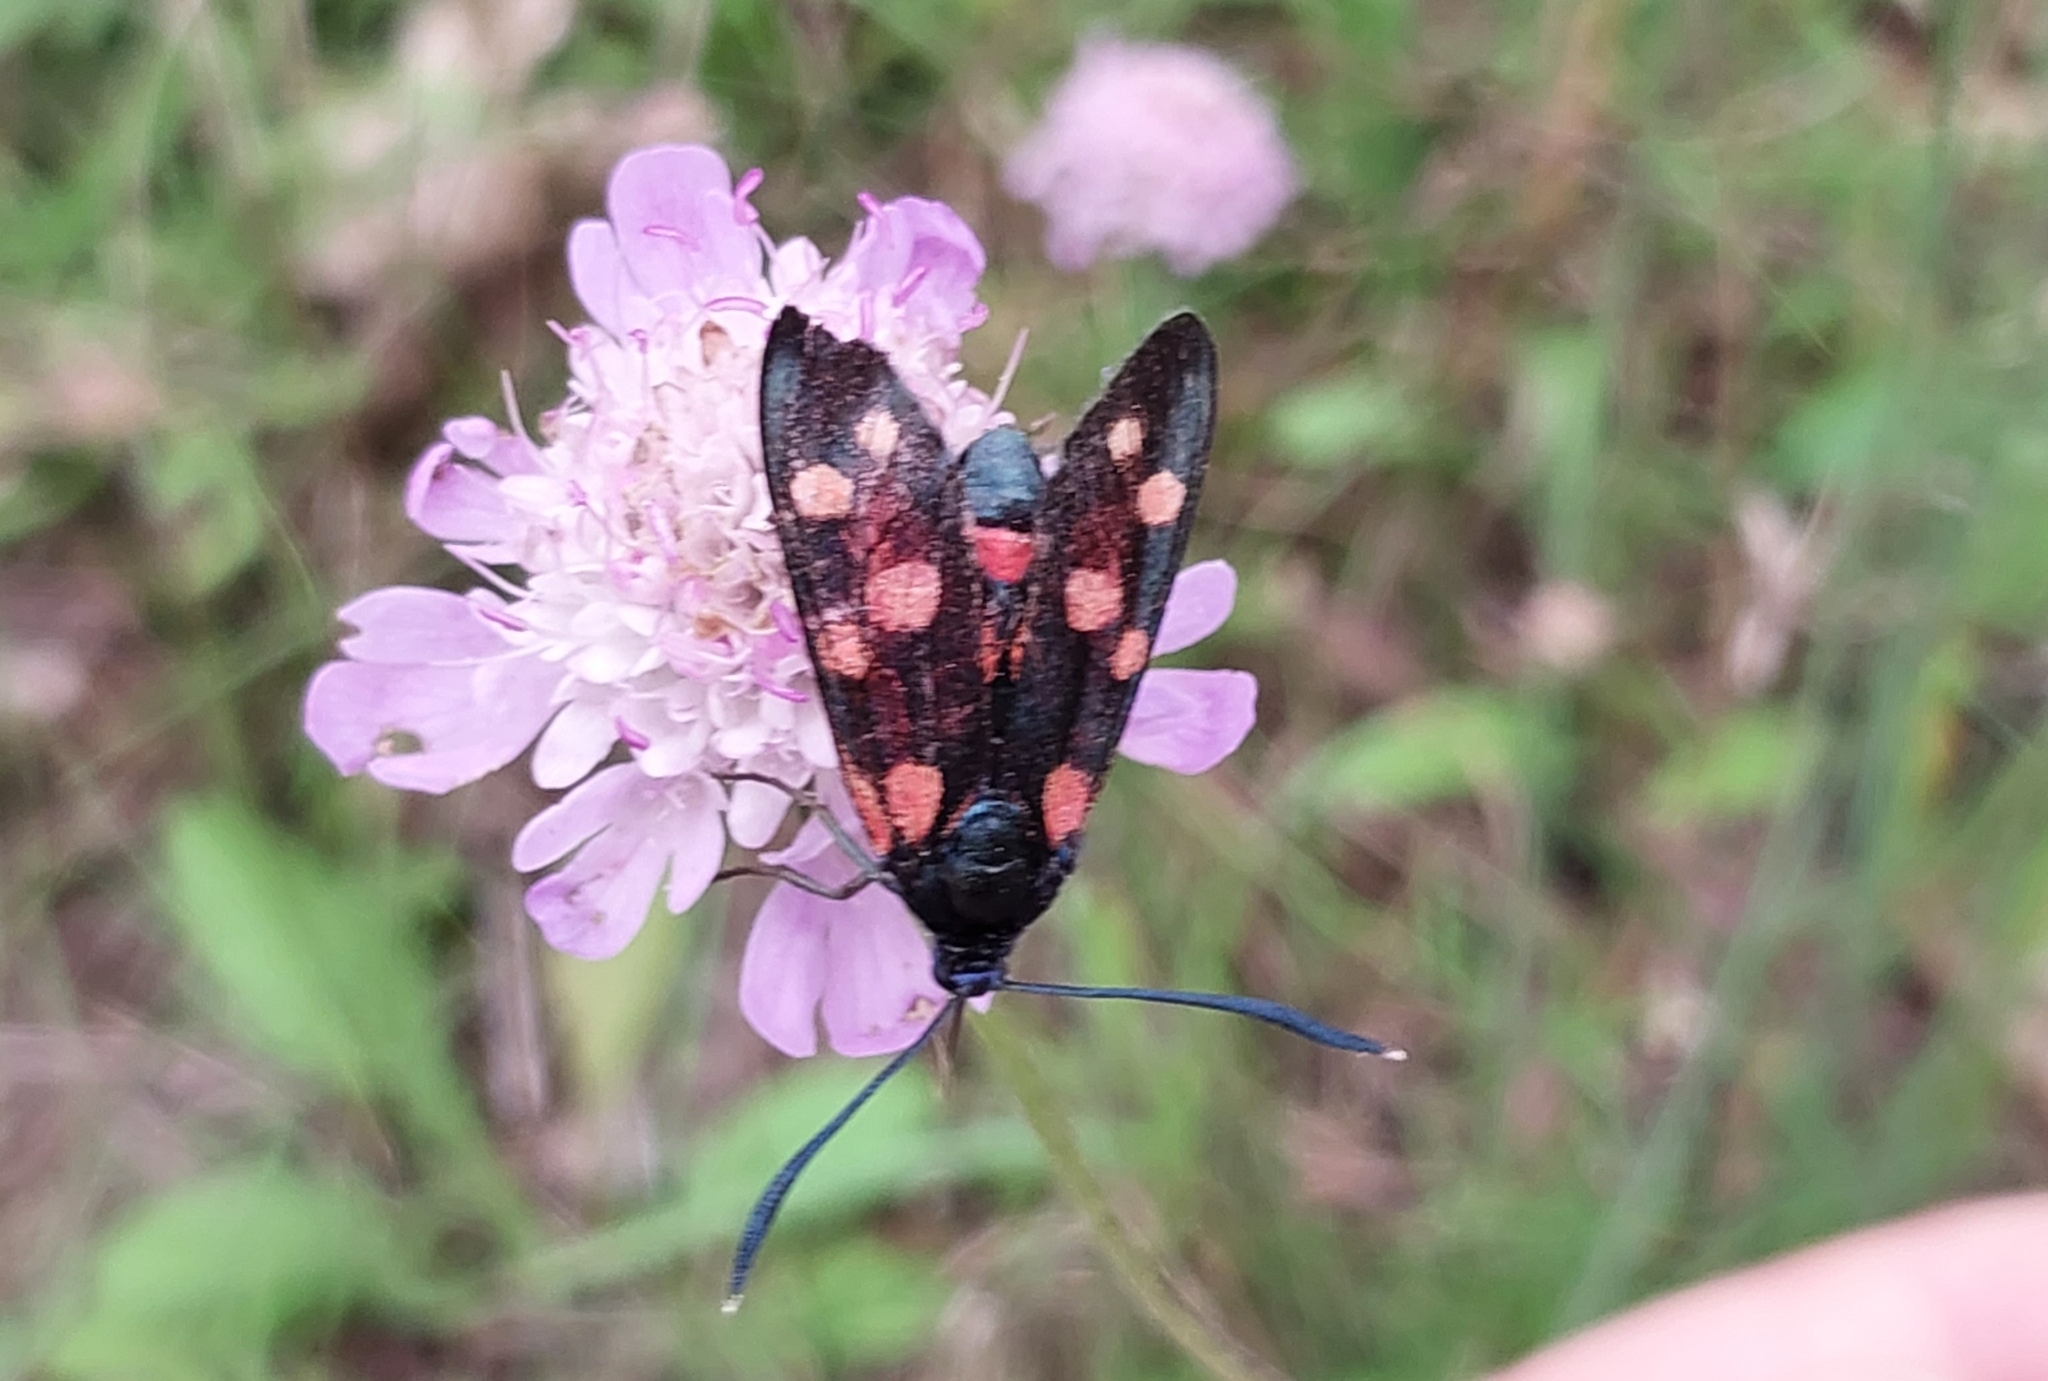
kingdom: Animalia
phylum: Arthropoda
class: Insecta
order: Lepidoptera
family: Zygaenidae
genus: Zygaena
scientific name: Zygaena ephialtes
